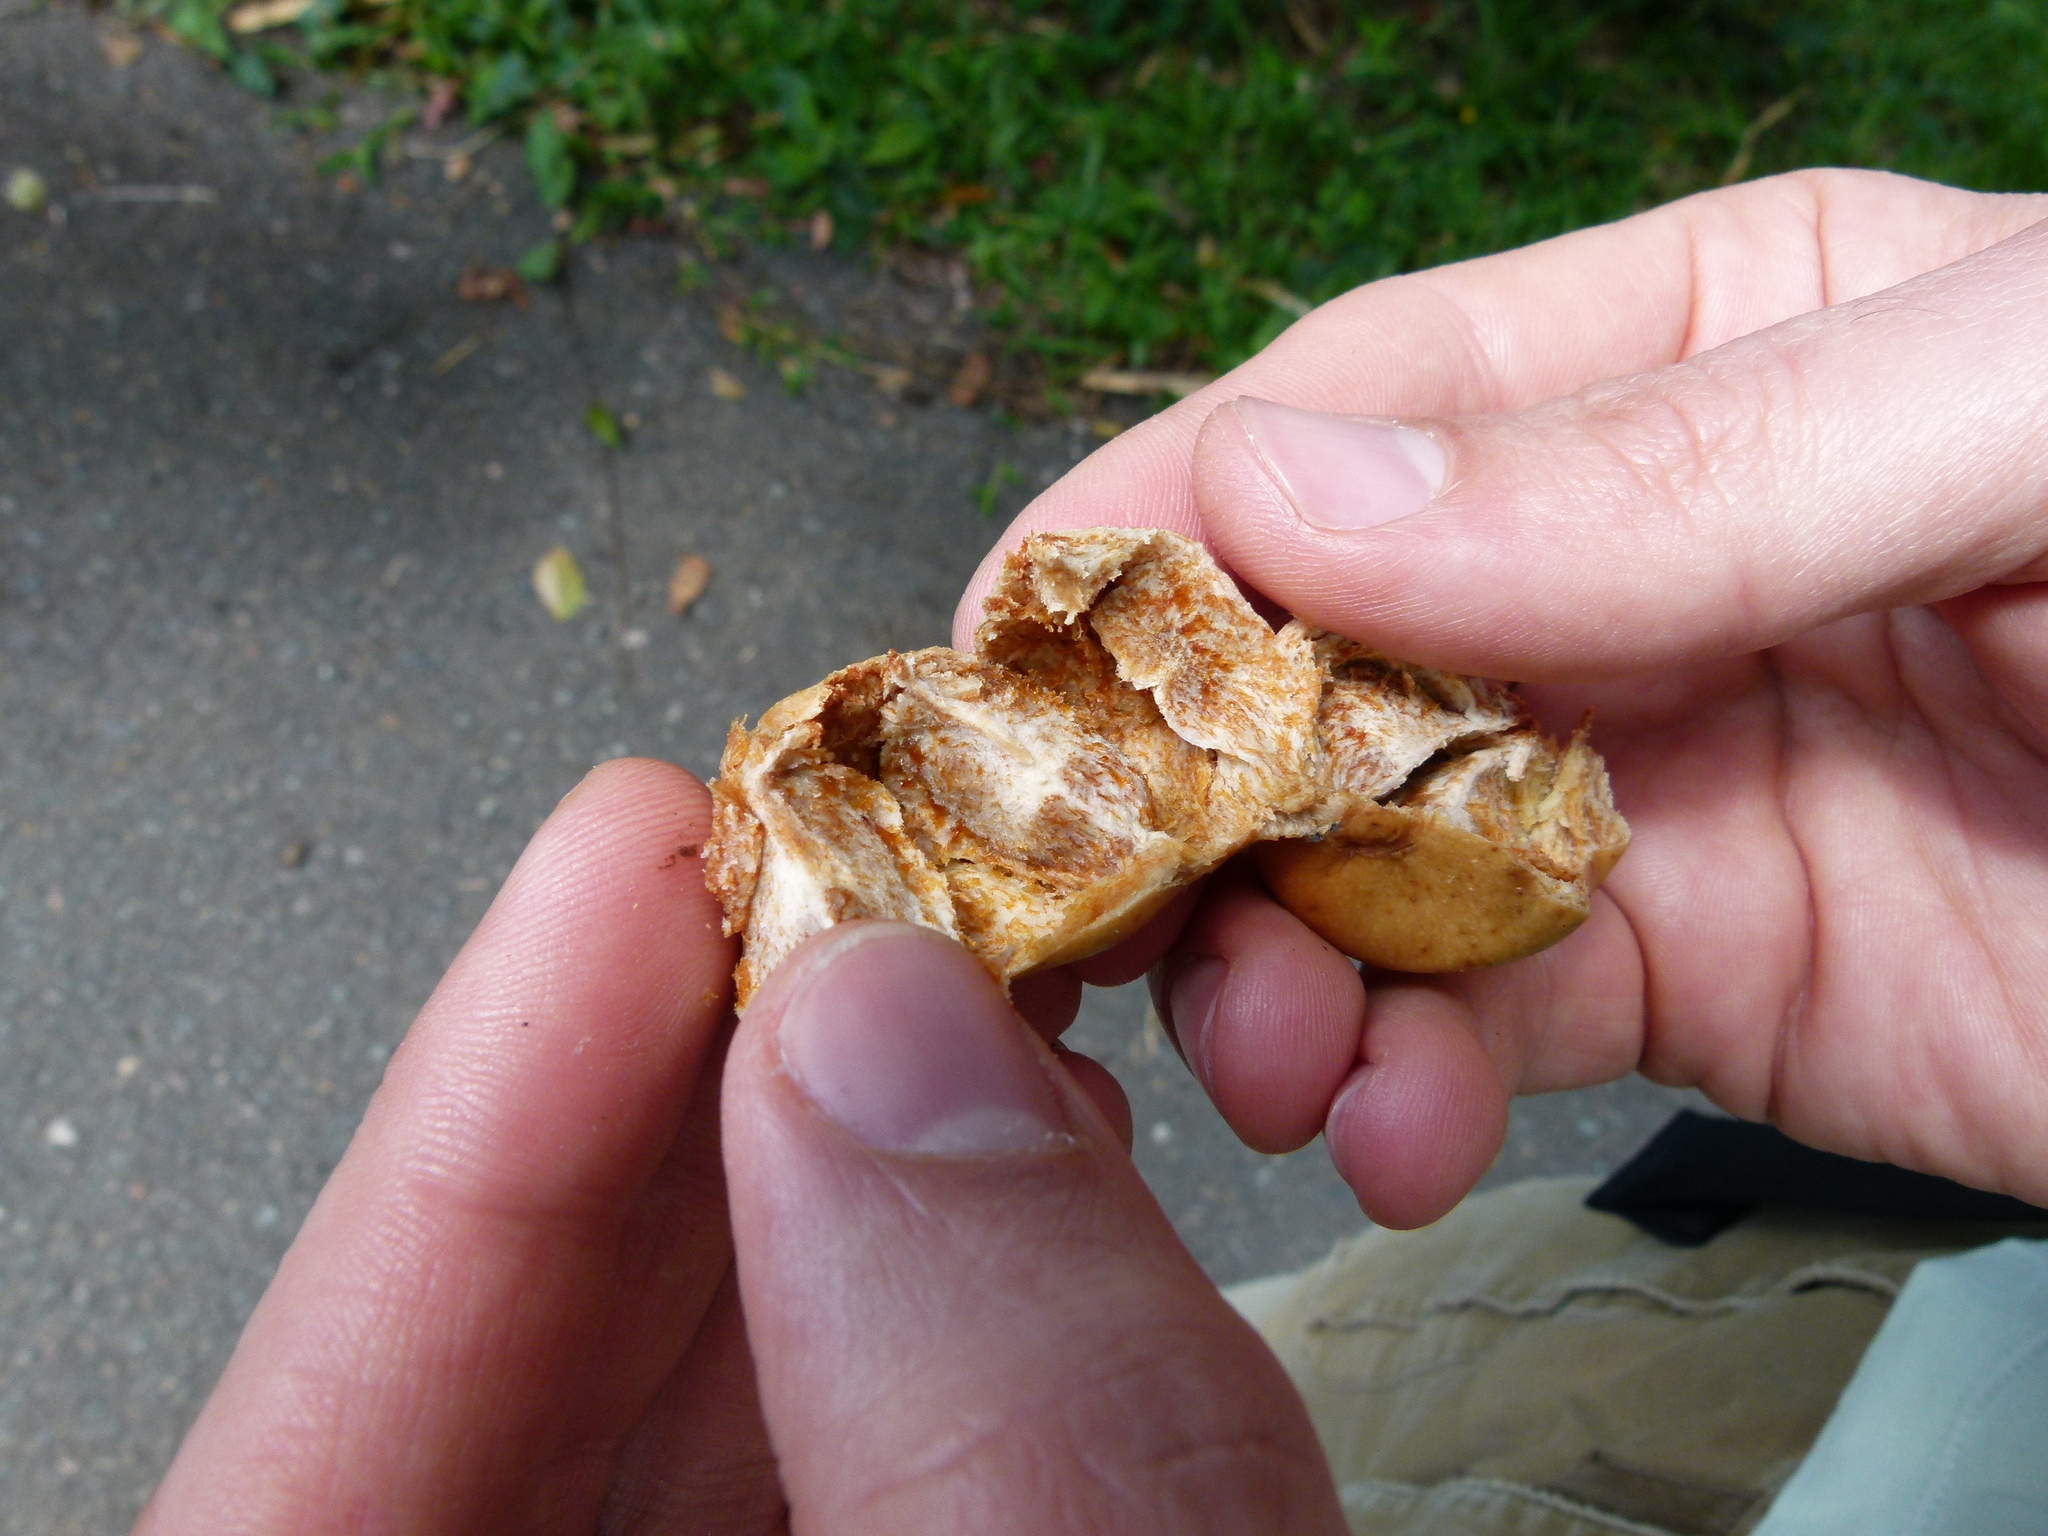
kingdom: Plantae
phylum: Tracheophyta
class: Magnoliopsida
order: Gentianales
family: Rubiaceae
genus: Vangueria
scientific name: Vangueria madagascariensis
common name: Smooth wild-medlar
